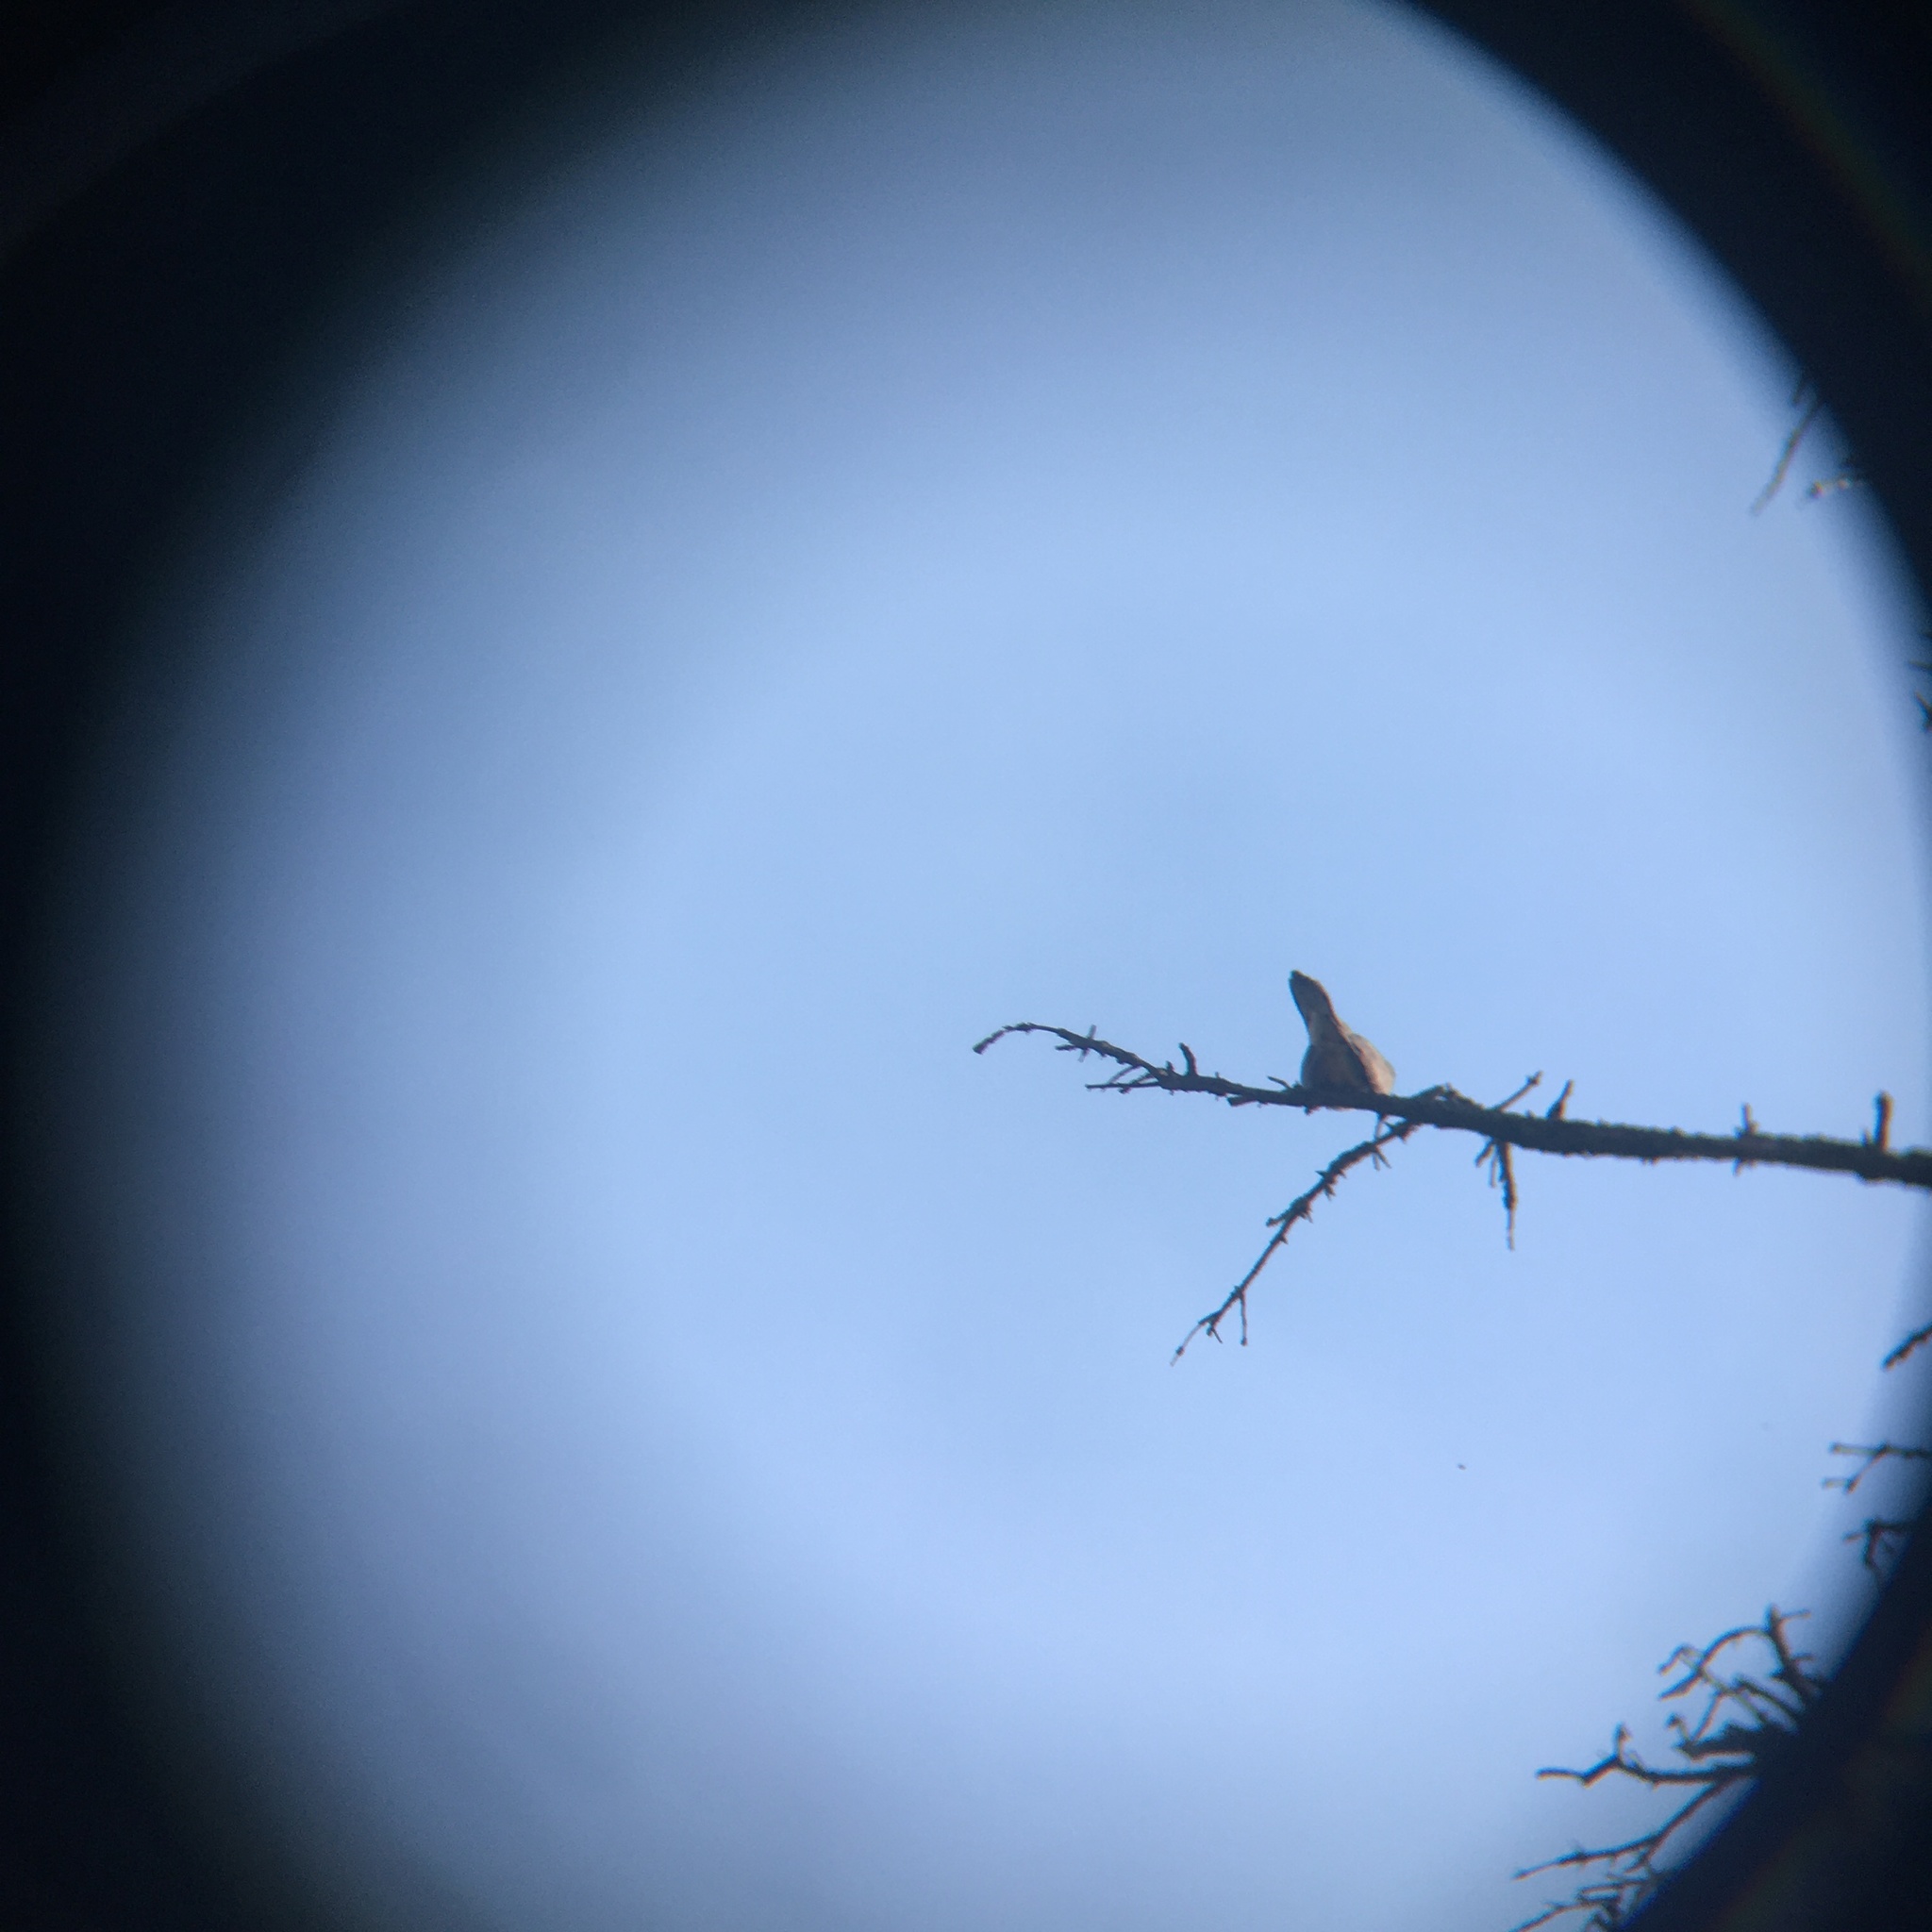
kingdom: Animalia
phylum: Chordata
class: Aves
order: Columbiformes
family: Columbidae
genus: Zenaida
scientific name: Zenaida macroura
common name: Mourning dove
